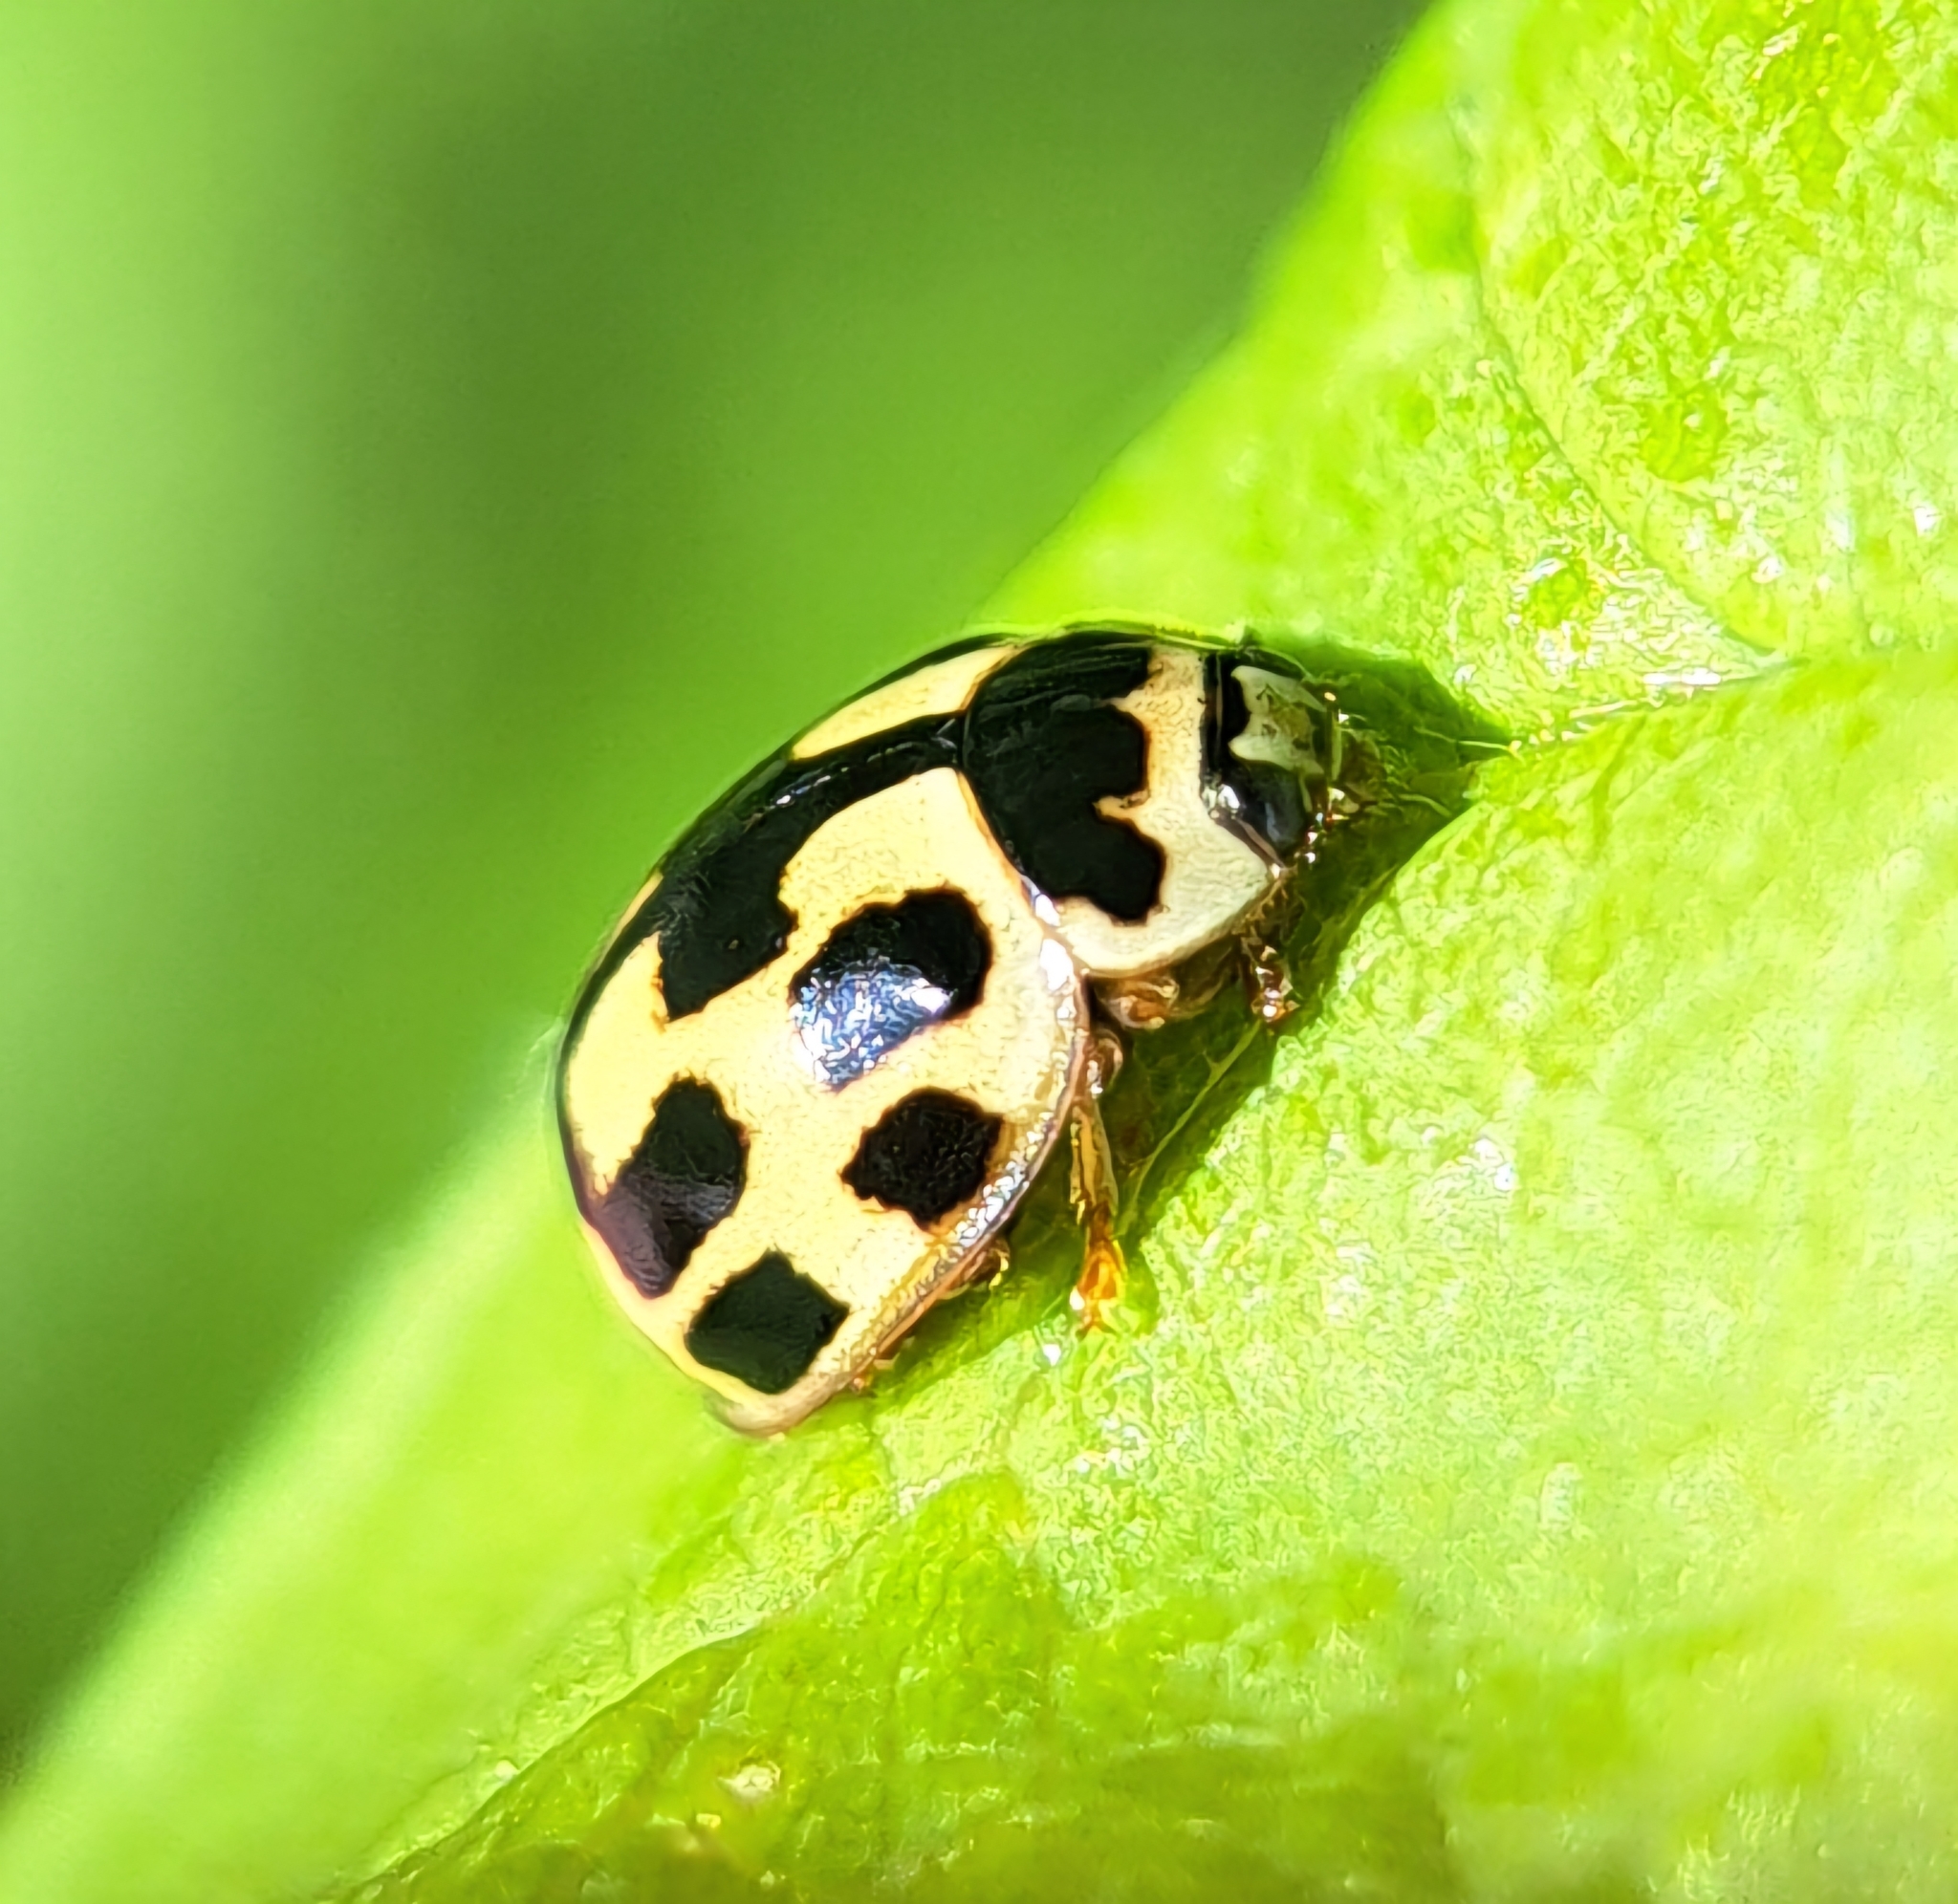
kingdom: Animalia
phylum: Arthropoda
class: Insecta
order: Coleoptera
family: Coccinellidae
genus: Propylaea
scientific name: Propylaea quatuordecimpunctata
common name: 14-spotted ladybird beetle
